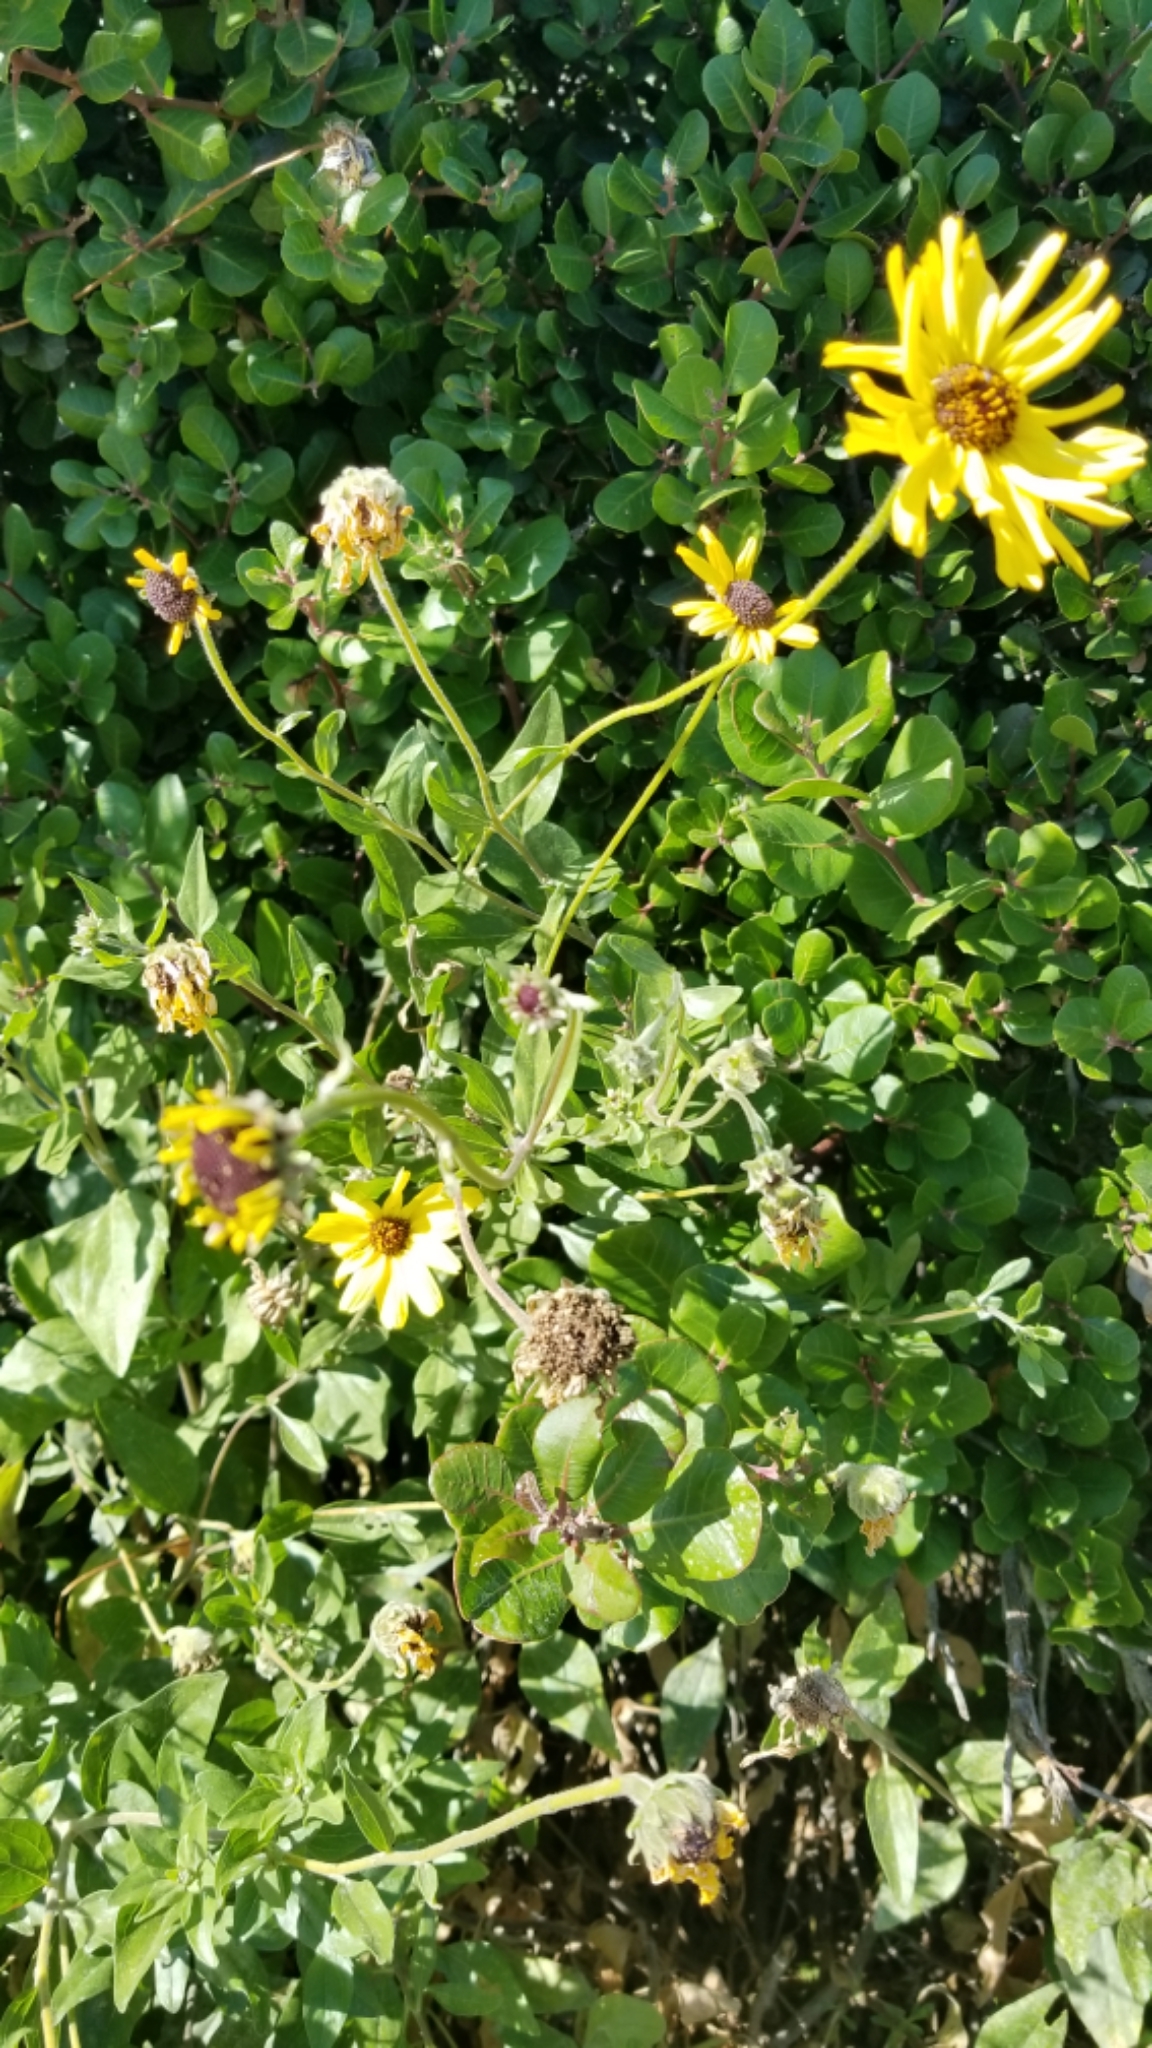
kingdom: Plantae
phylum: Tracheophyta
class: Magnoliopsida
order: Asterales
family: Asteraceae
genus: Encelia
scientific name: Encelia californica
